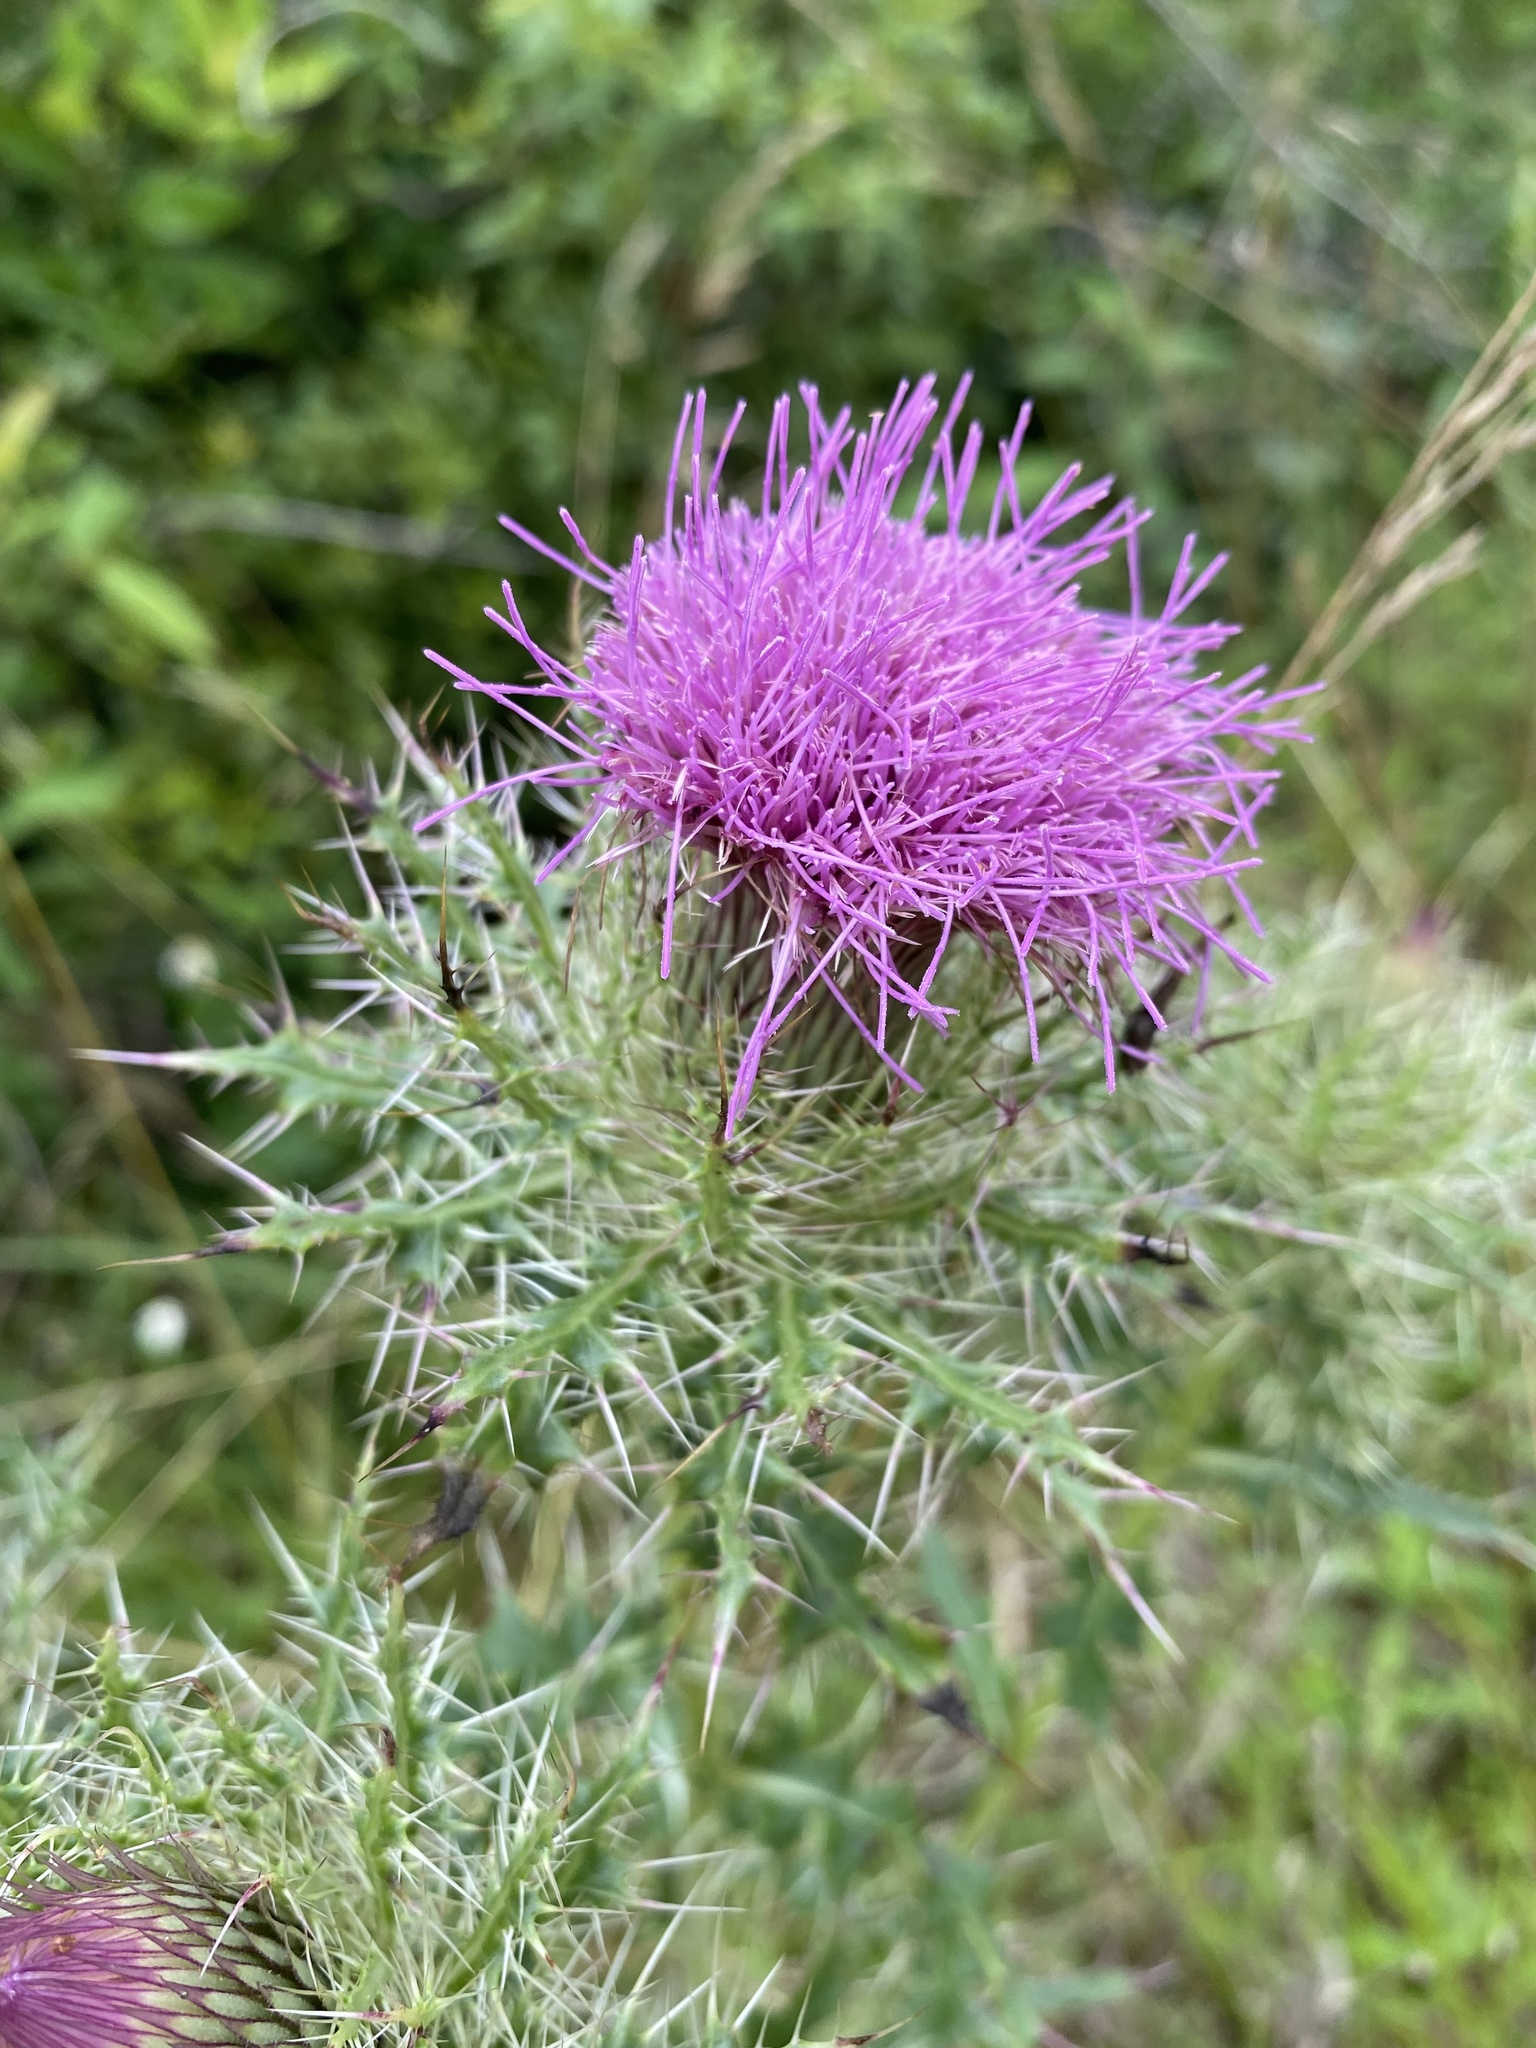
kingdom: Plantae
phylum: Tracheophyta
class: Magnoliopsida
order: Asterales
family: Asteraceae
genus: Cirsium
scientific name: Cirsium horridulum
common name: Bristly thistle
